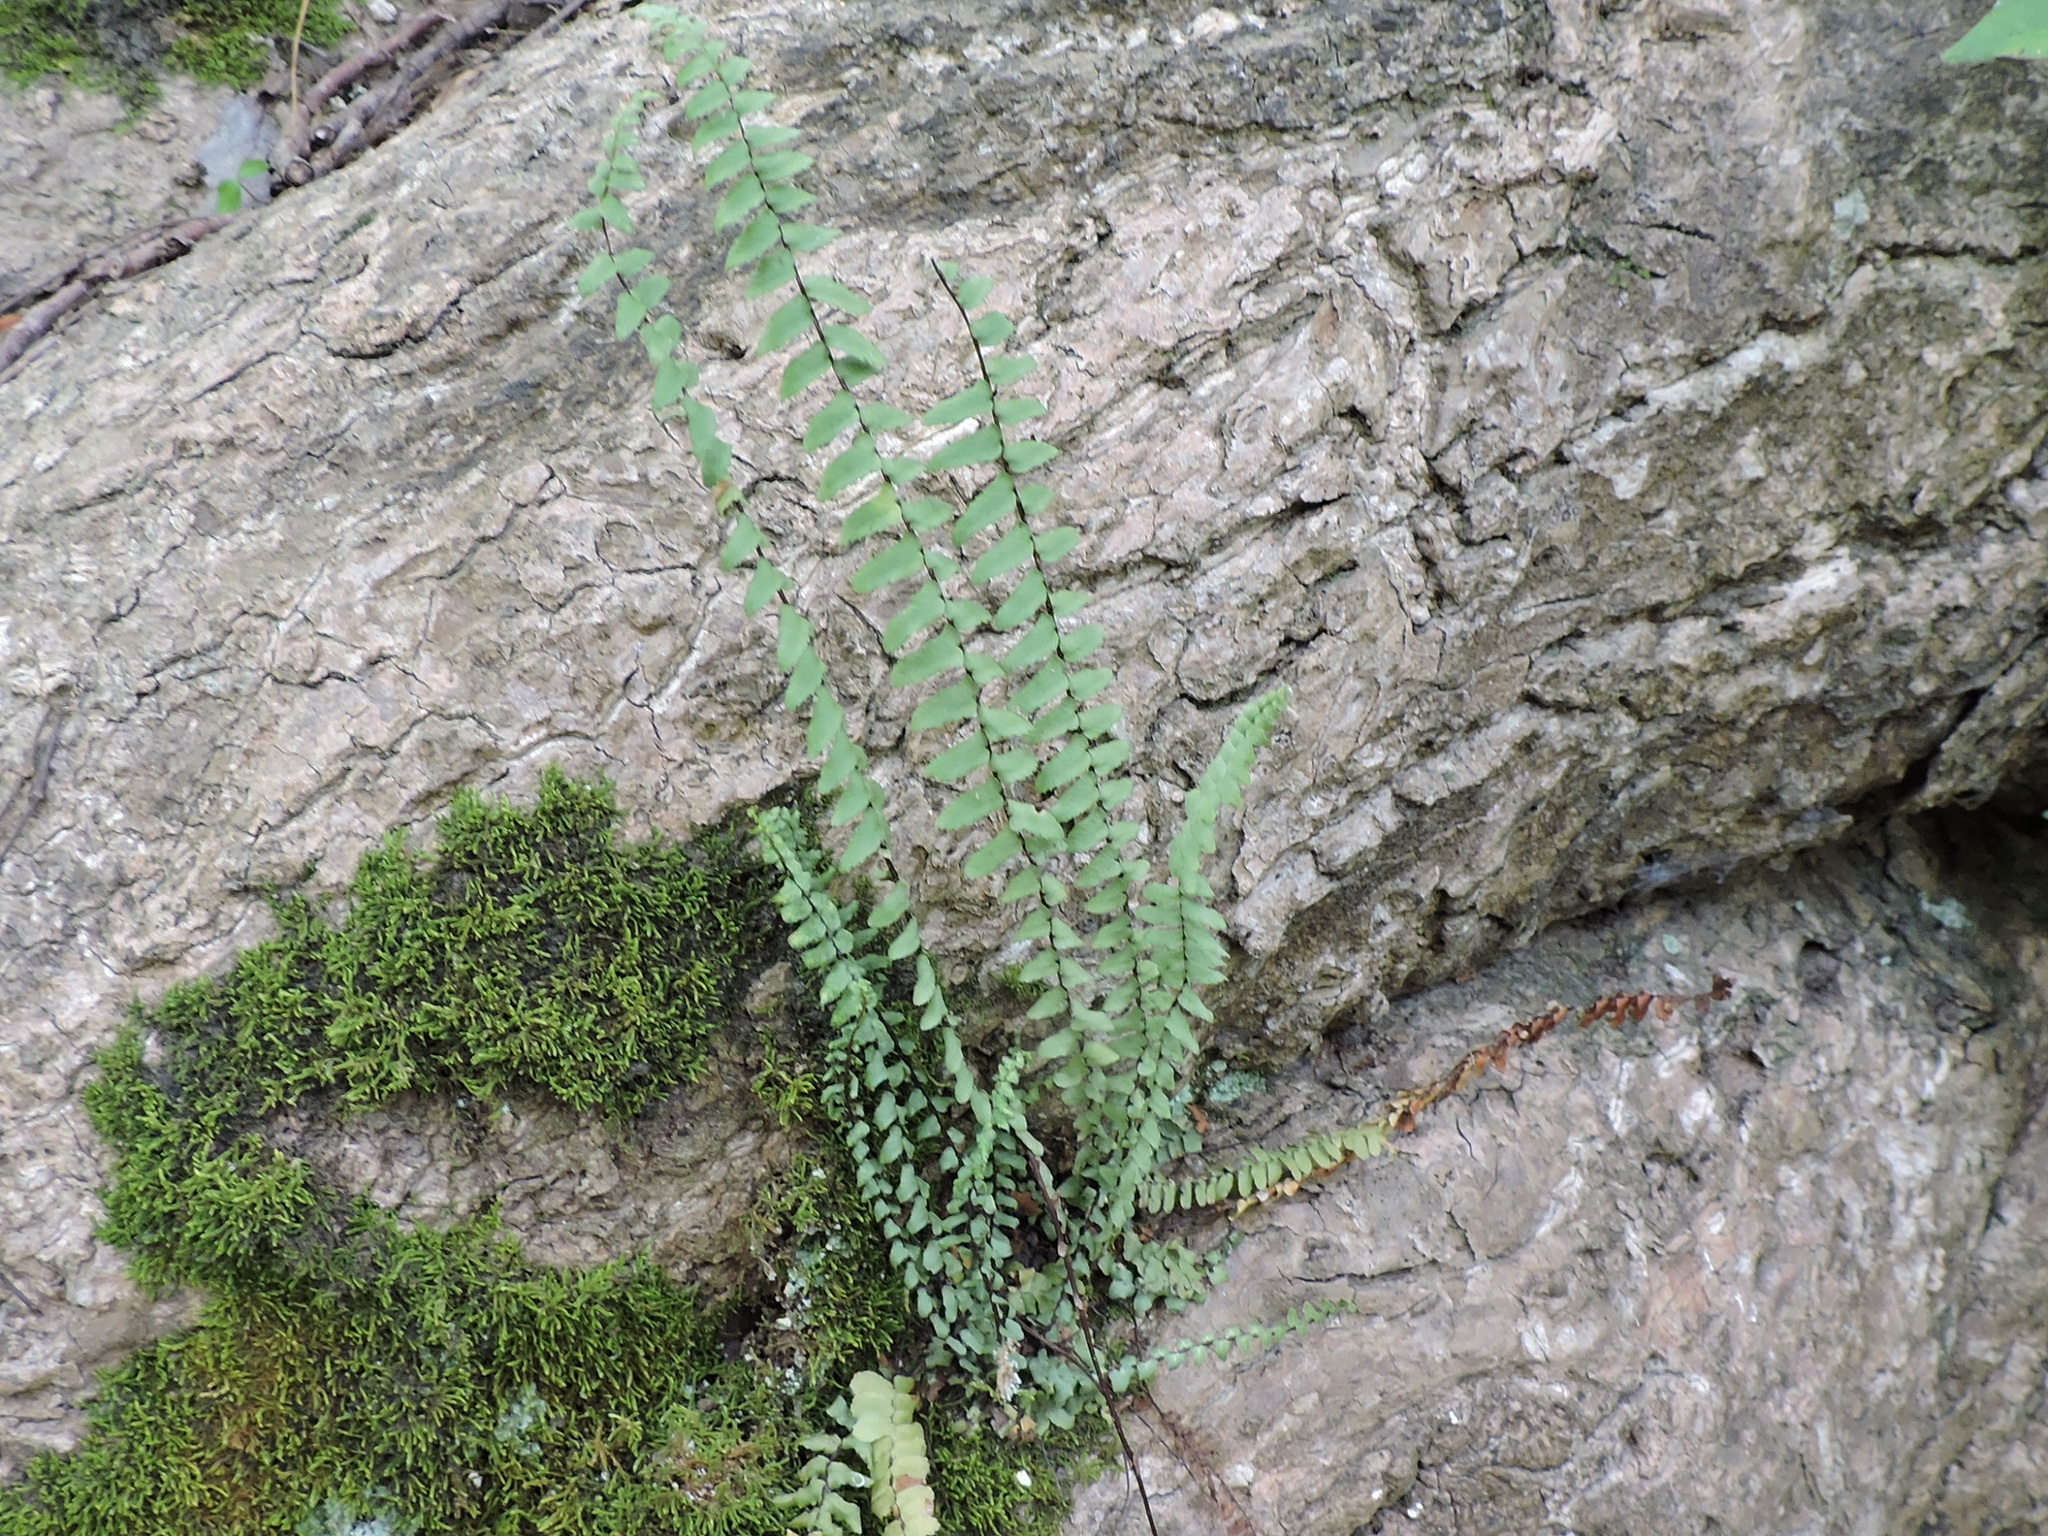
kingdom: Plantae
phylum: Tracheophyta
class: Polypodiopsida
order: Polypodiales
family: Aspleniaceae
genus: Asplenium
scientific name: Asplenium platyneuron
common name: Ebony spleenwort
